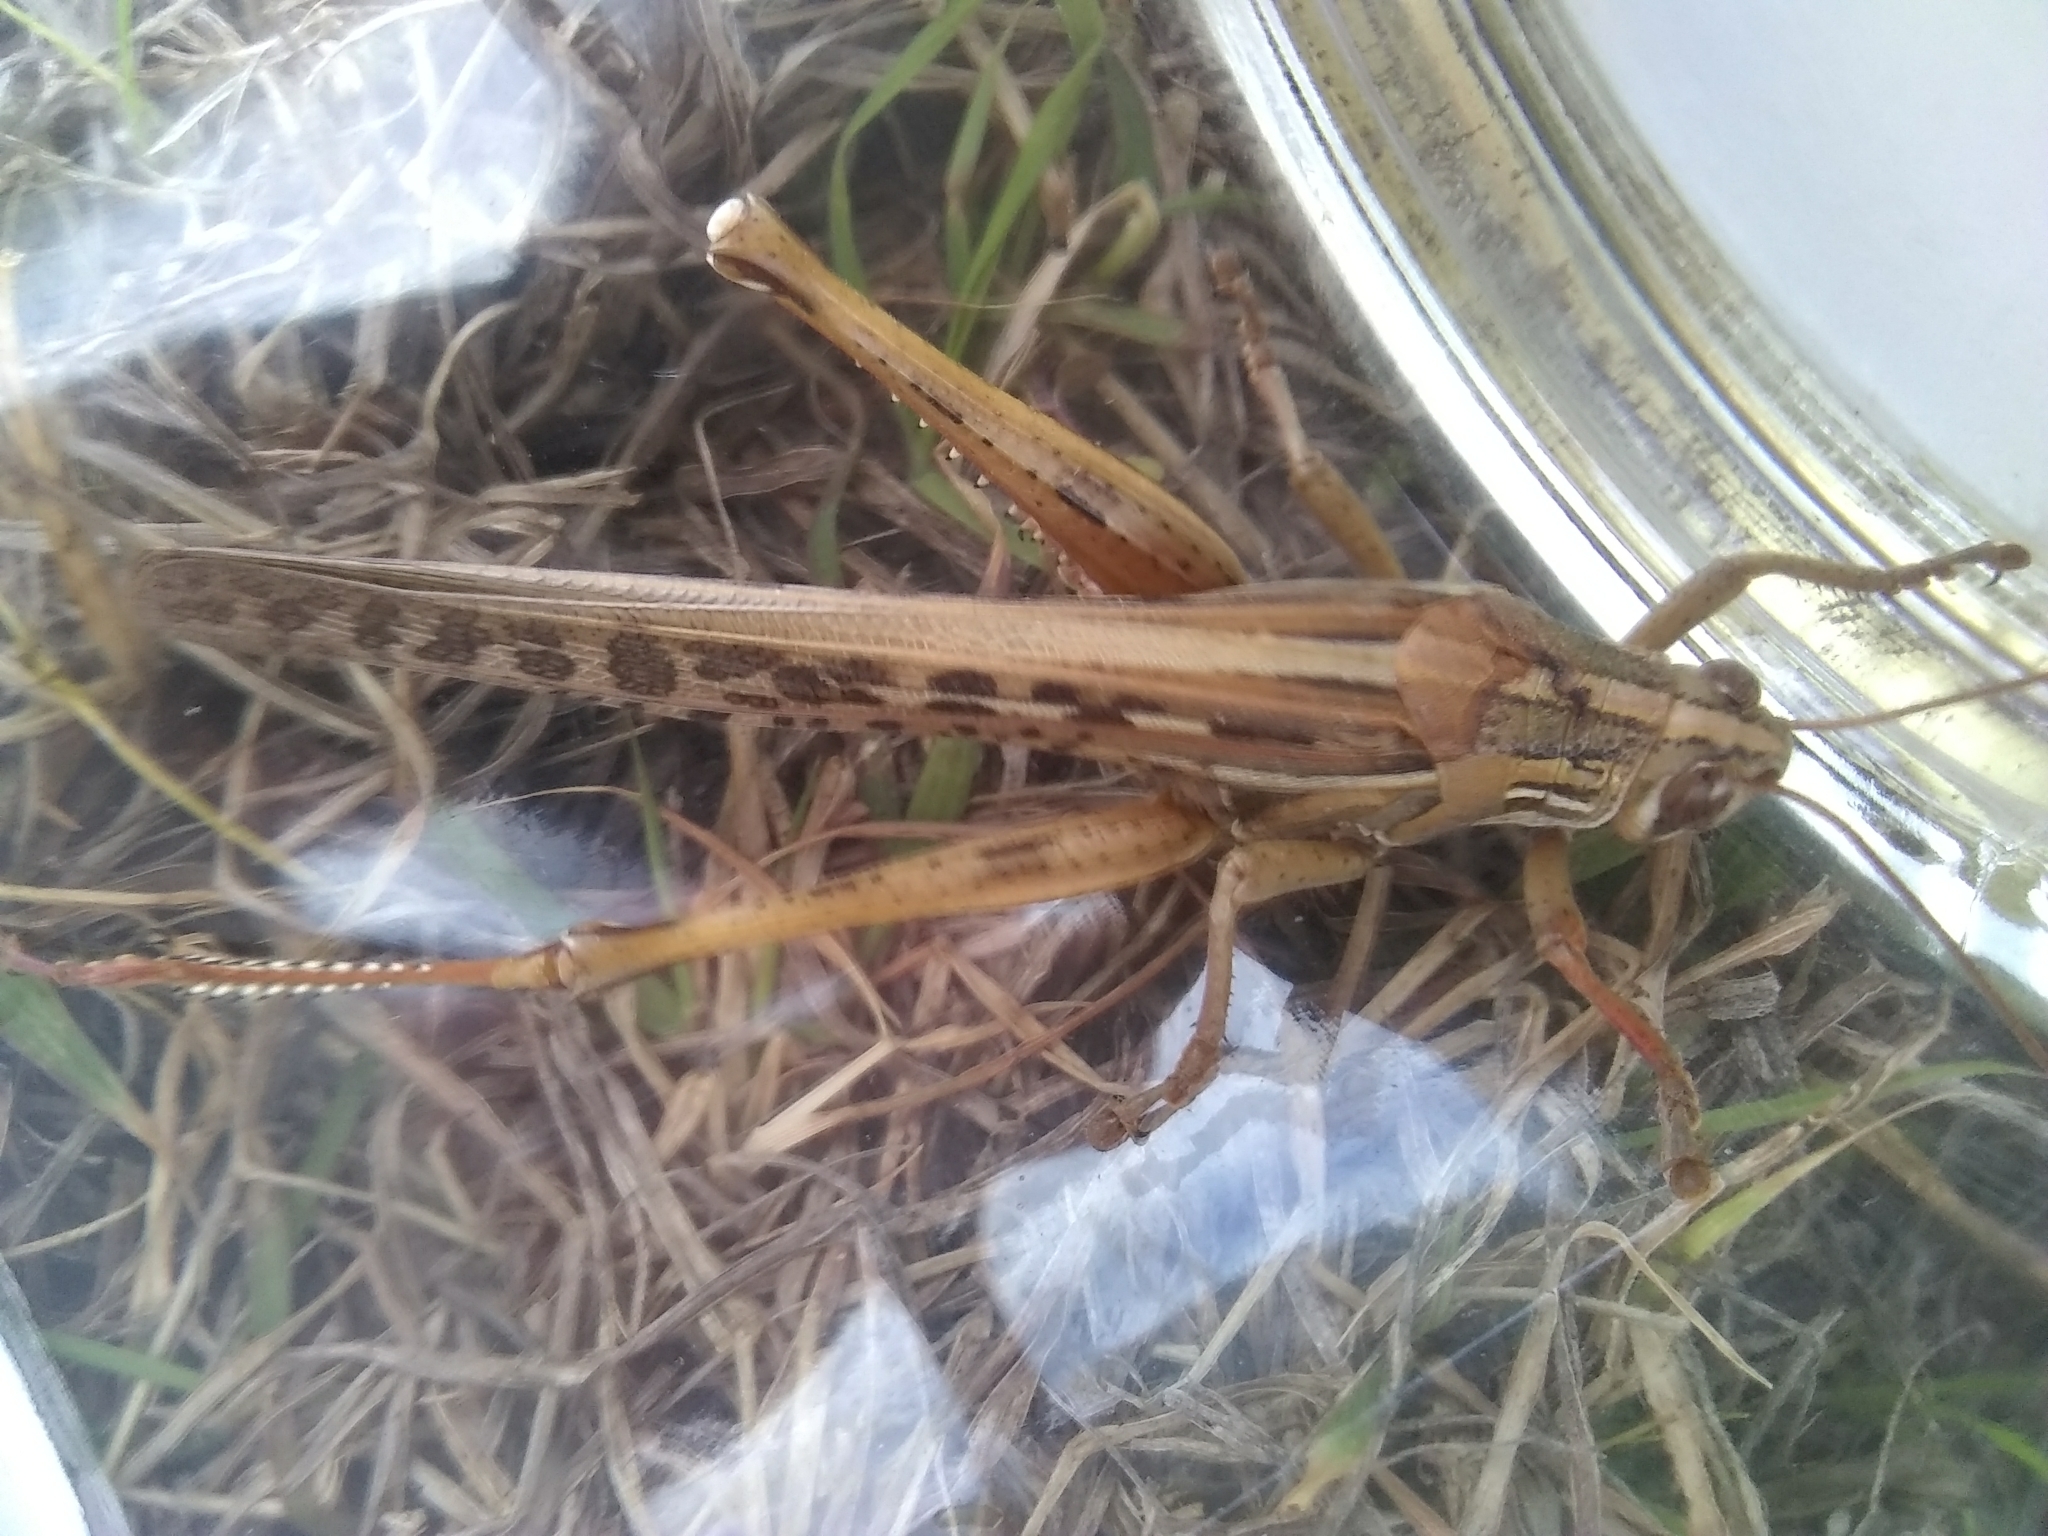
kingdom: Animalia
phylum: Arthropoda
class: Insecta
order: Orthoptera
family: Acrididae
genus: Schistocerca
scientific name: Schistocerca americana
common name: American bird locust
